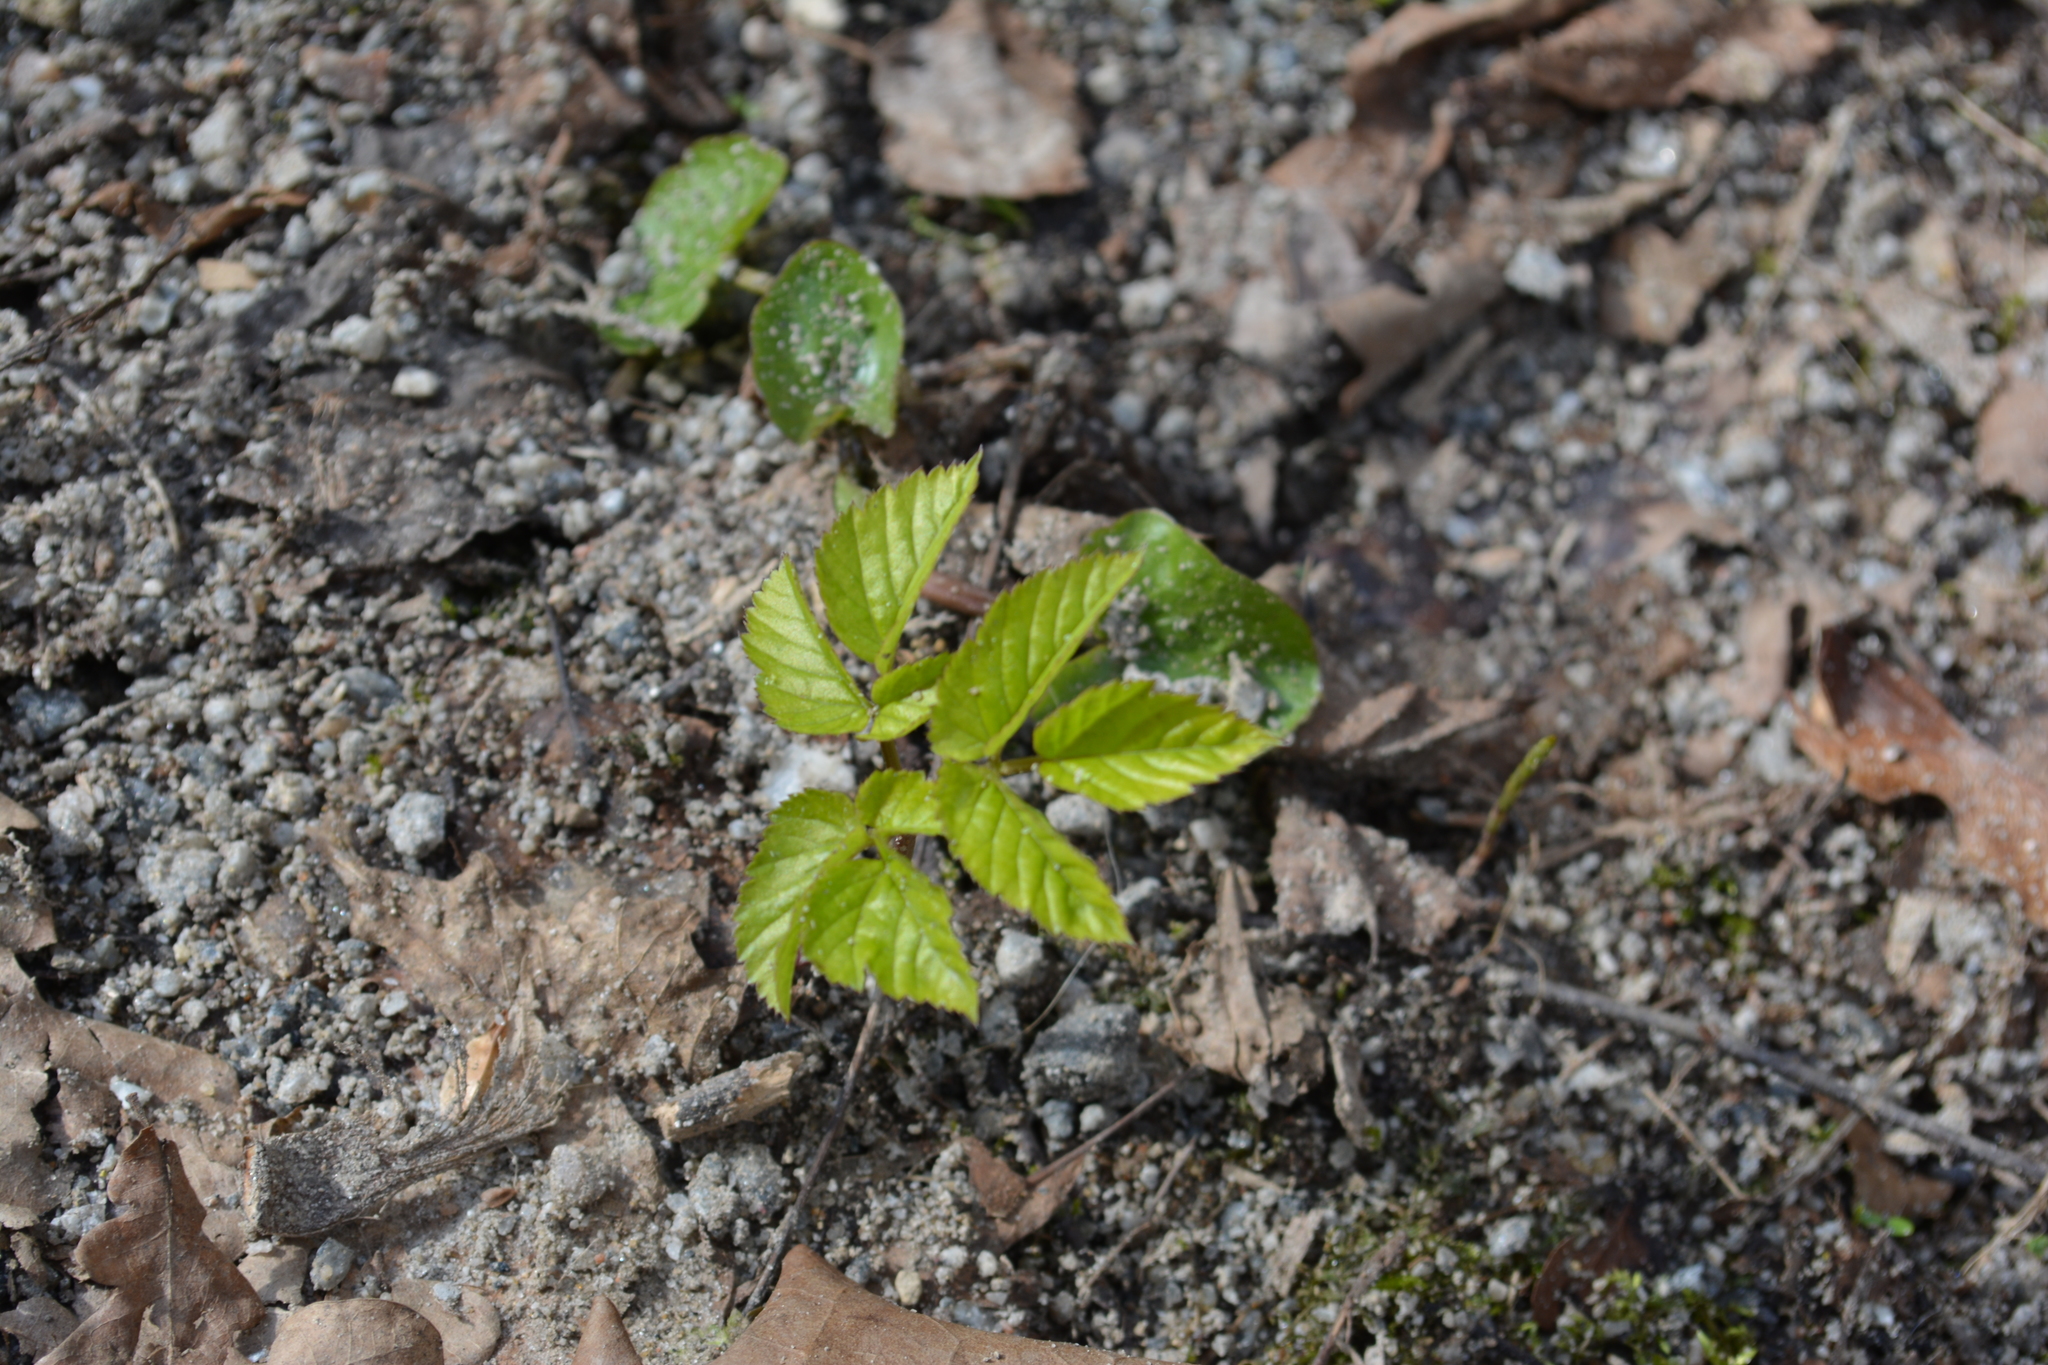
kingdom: Plantae
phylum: Tracheophyta
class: Magnoliopsida
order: Apiales
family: Apiaceae
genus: Aegopodium
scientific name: Aegopodium podagraria
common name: Ground-elder
